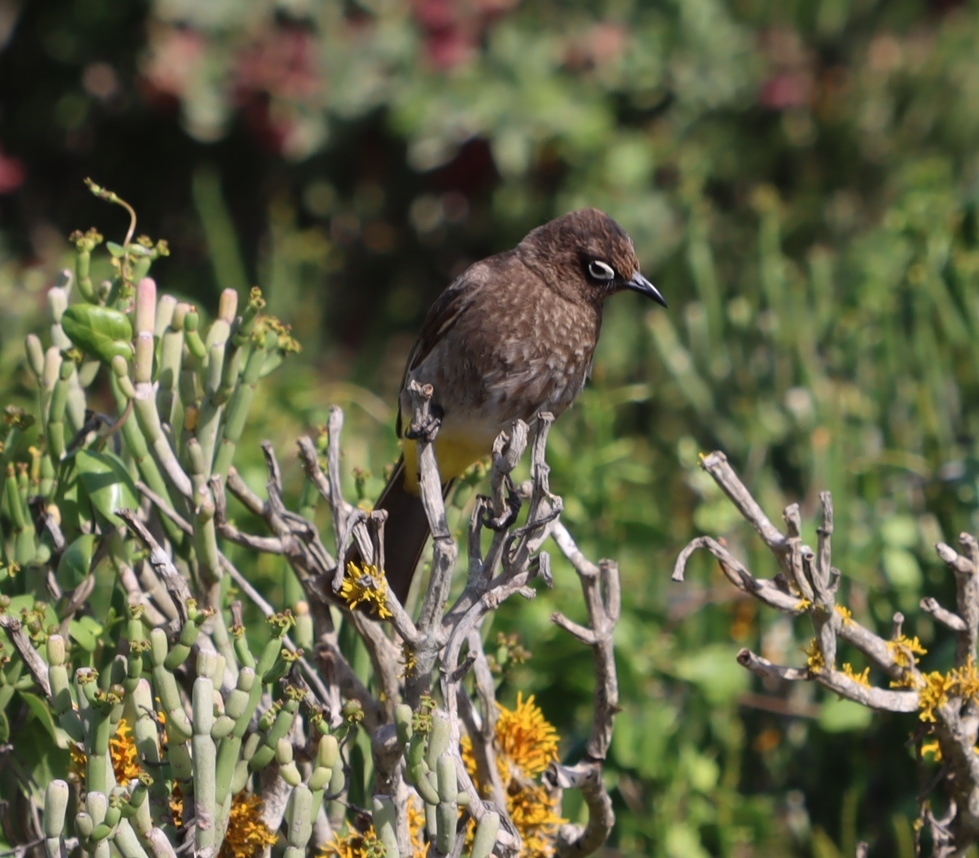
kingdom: Animalia
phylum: Chordata
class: Aves
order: Passeriformes
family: Pycnonotidae
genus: Pycnonotus
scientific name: Pycnonotus capensis
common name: Cape bulbul
